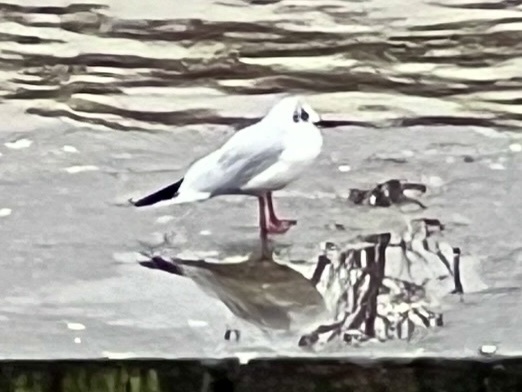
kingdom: Animalia
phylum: Chordata
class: Aves
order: Charadriiformes
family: Laridae
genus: Chroicocephalus
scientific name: Chroicocephalus ridibundus
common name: Black-headed gull
